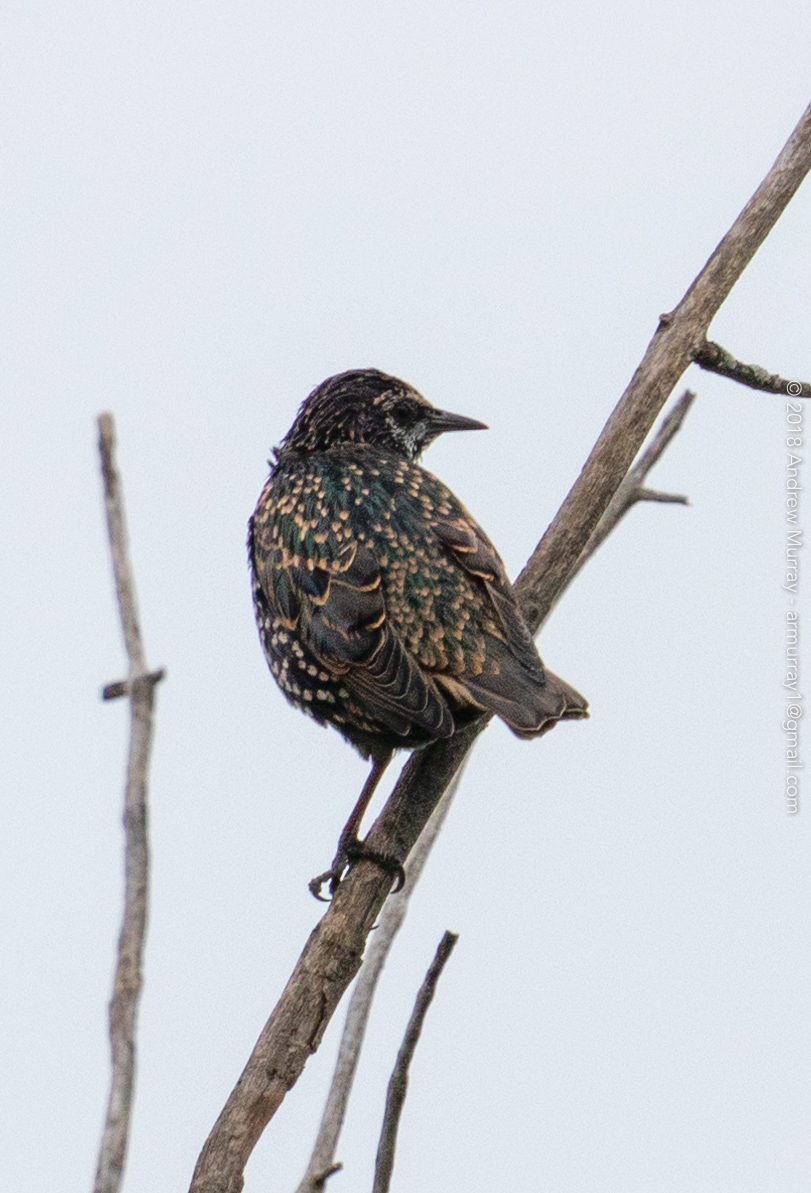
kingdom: Animalia
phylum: Chordata
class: Aves
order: Passeriformes
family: Sturnidae
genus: Sturnus
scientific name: Sturnus vulgaris
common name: Common starling
